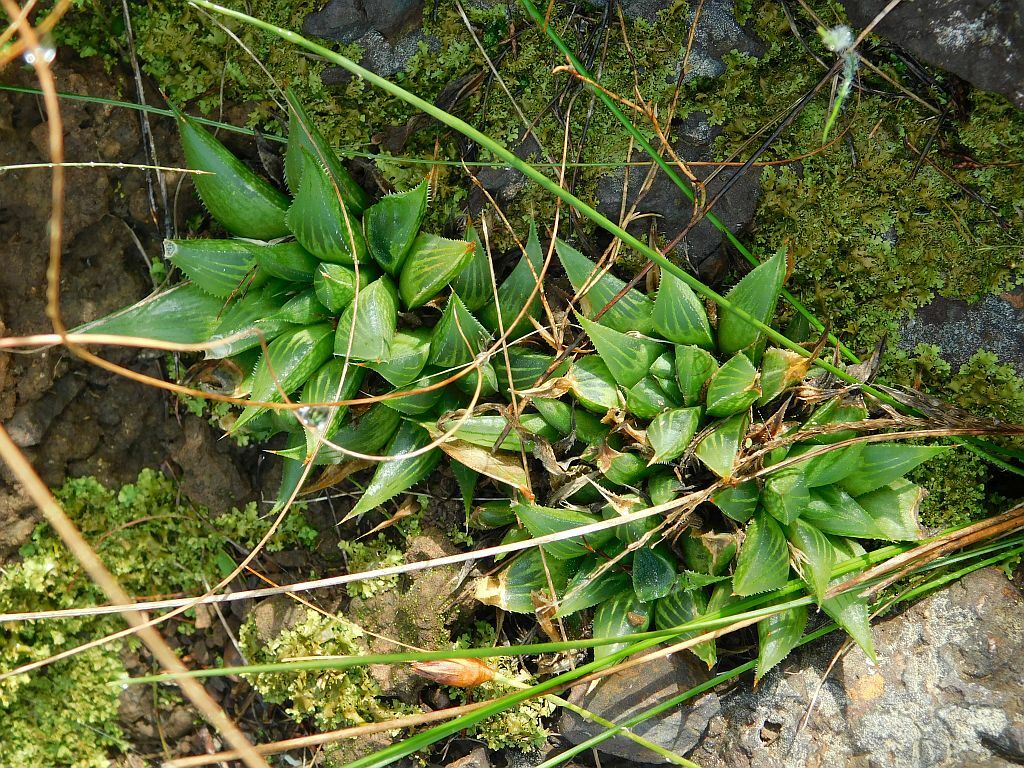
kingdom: Plantae
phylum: Tracheophyta
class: Liliopsida
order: Asparagales
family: Asphodelaceae
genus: Haworthia
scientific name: Haworthia mirabilis
